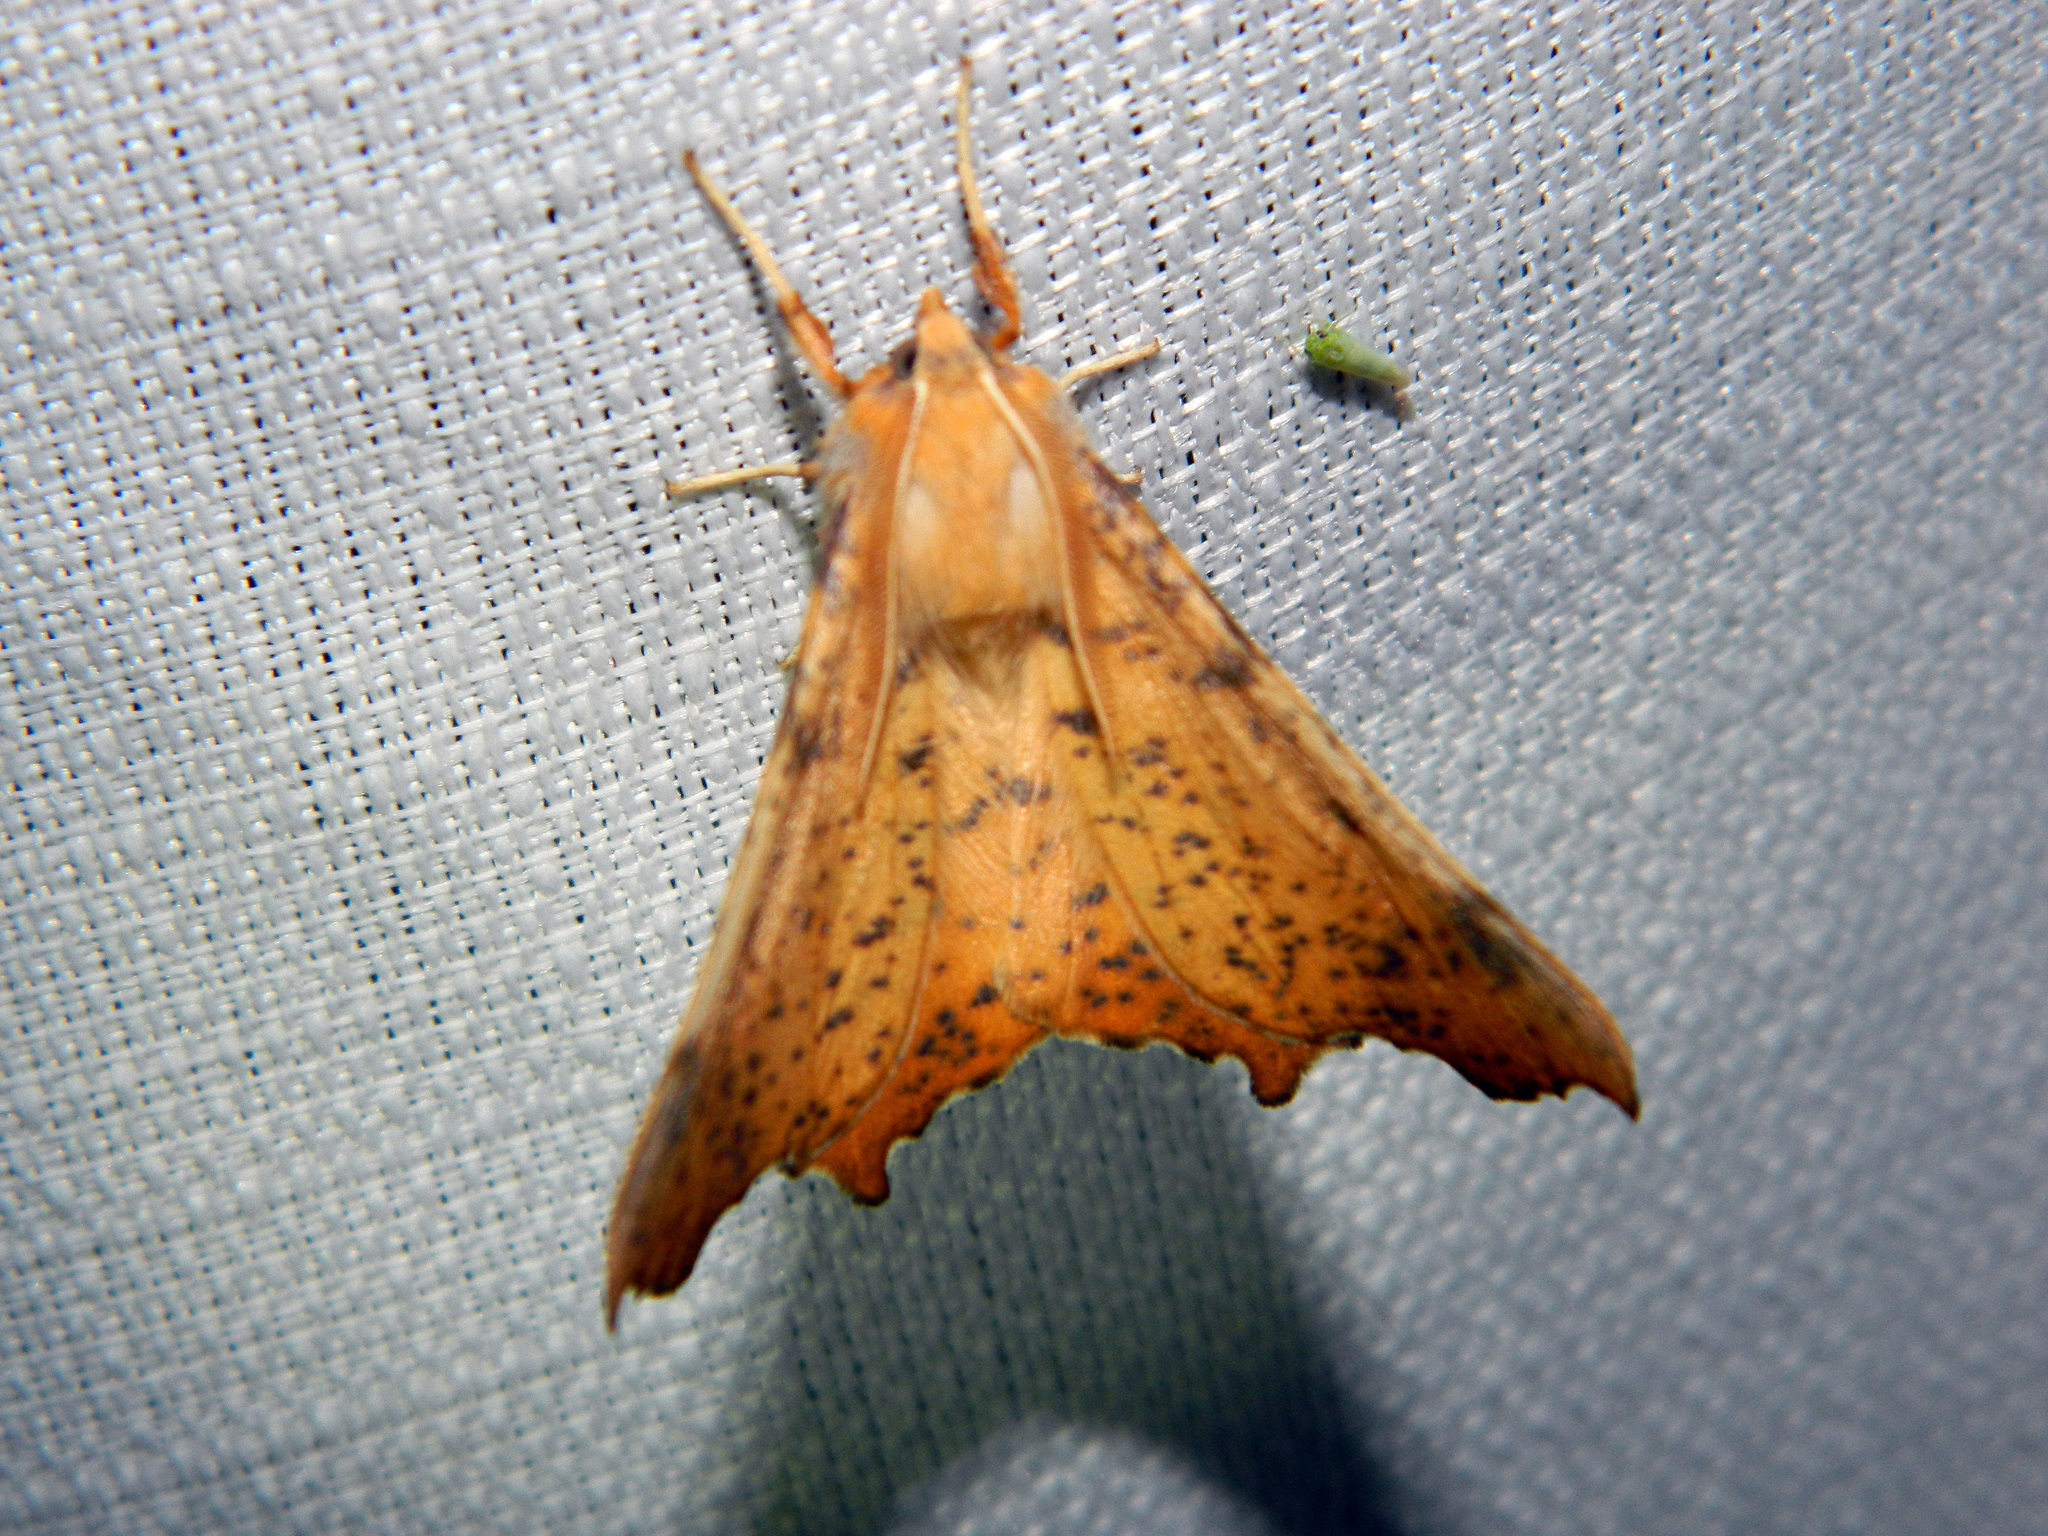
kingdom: Animalia
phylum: Arthropoda
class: Insecta
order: Lepidoptera
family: Geometridae
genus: Ennomos
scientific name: Ennomos magnaria
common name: Maple spanworm
